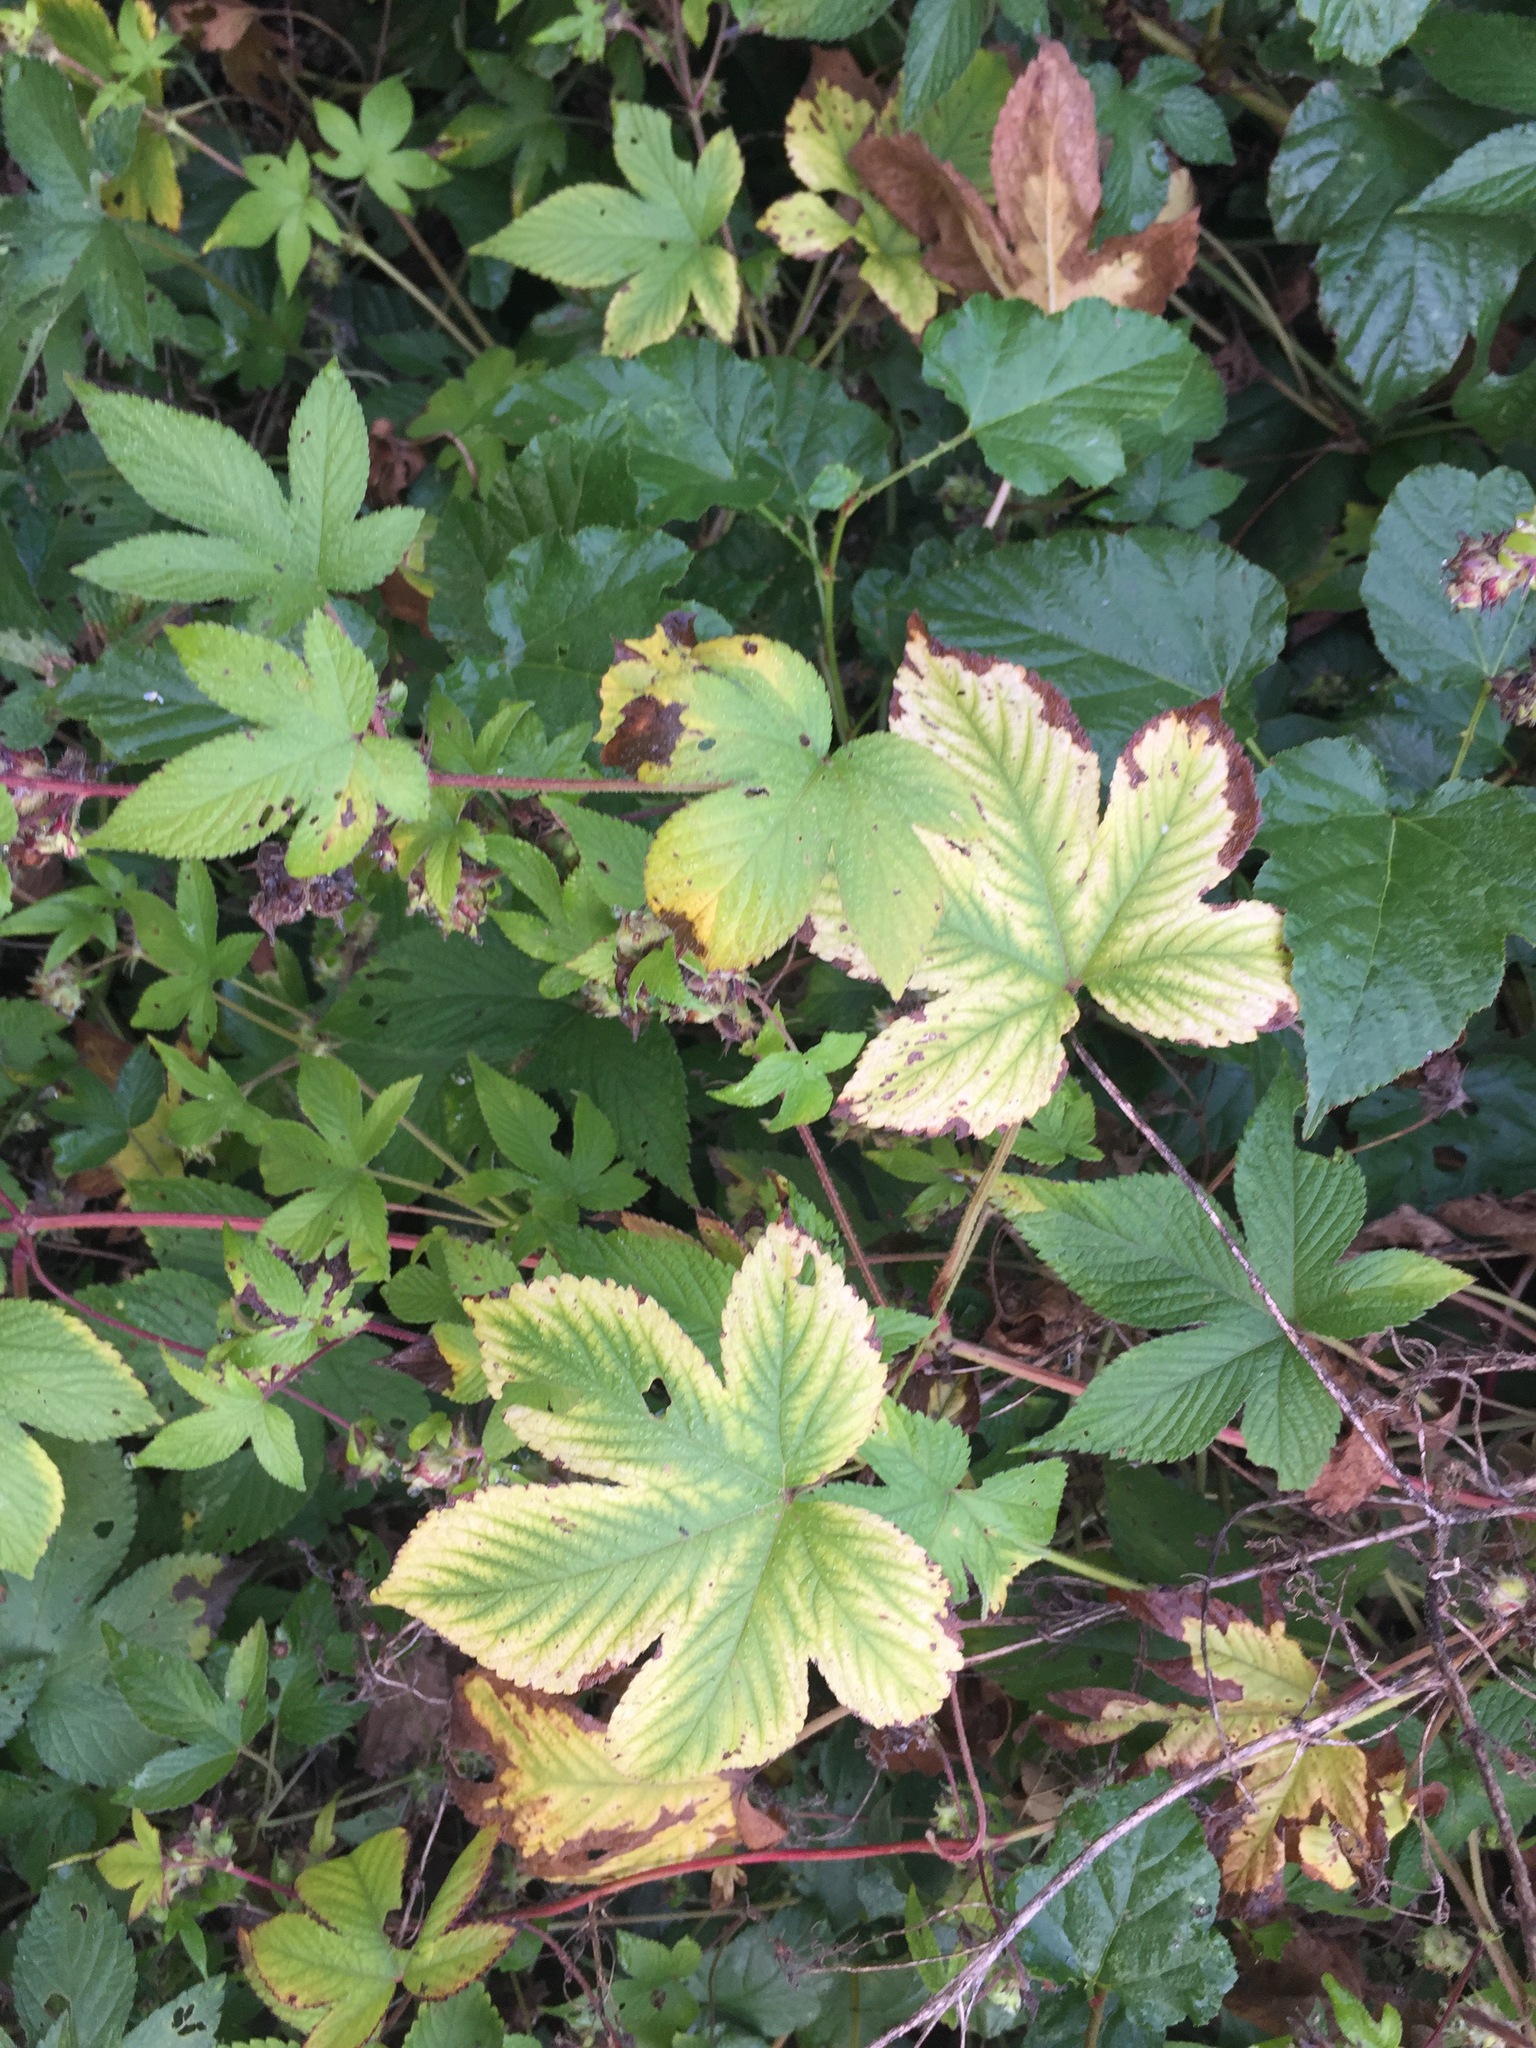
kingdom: Plantae
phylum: Tracheophyta
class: Magnoliopsida
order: Rosales
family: Cannabaceae
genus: Humulus
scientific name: Humulus scandens
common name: Japanese hop
